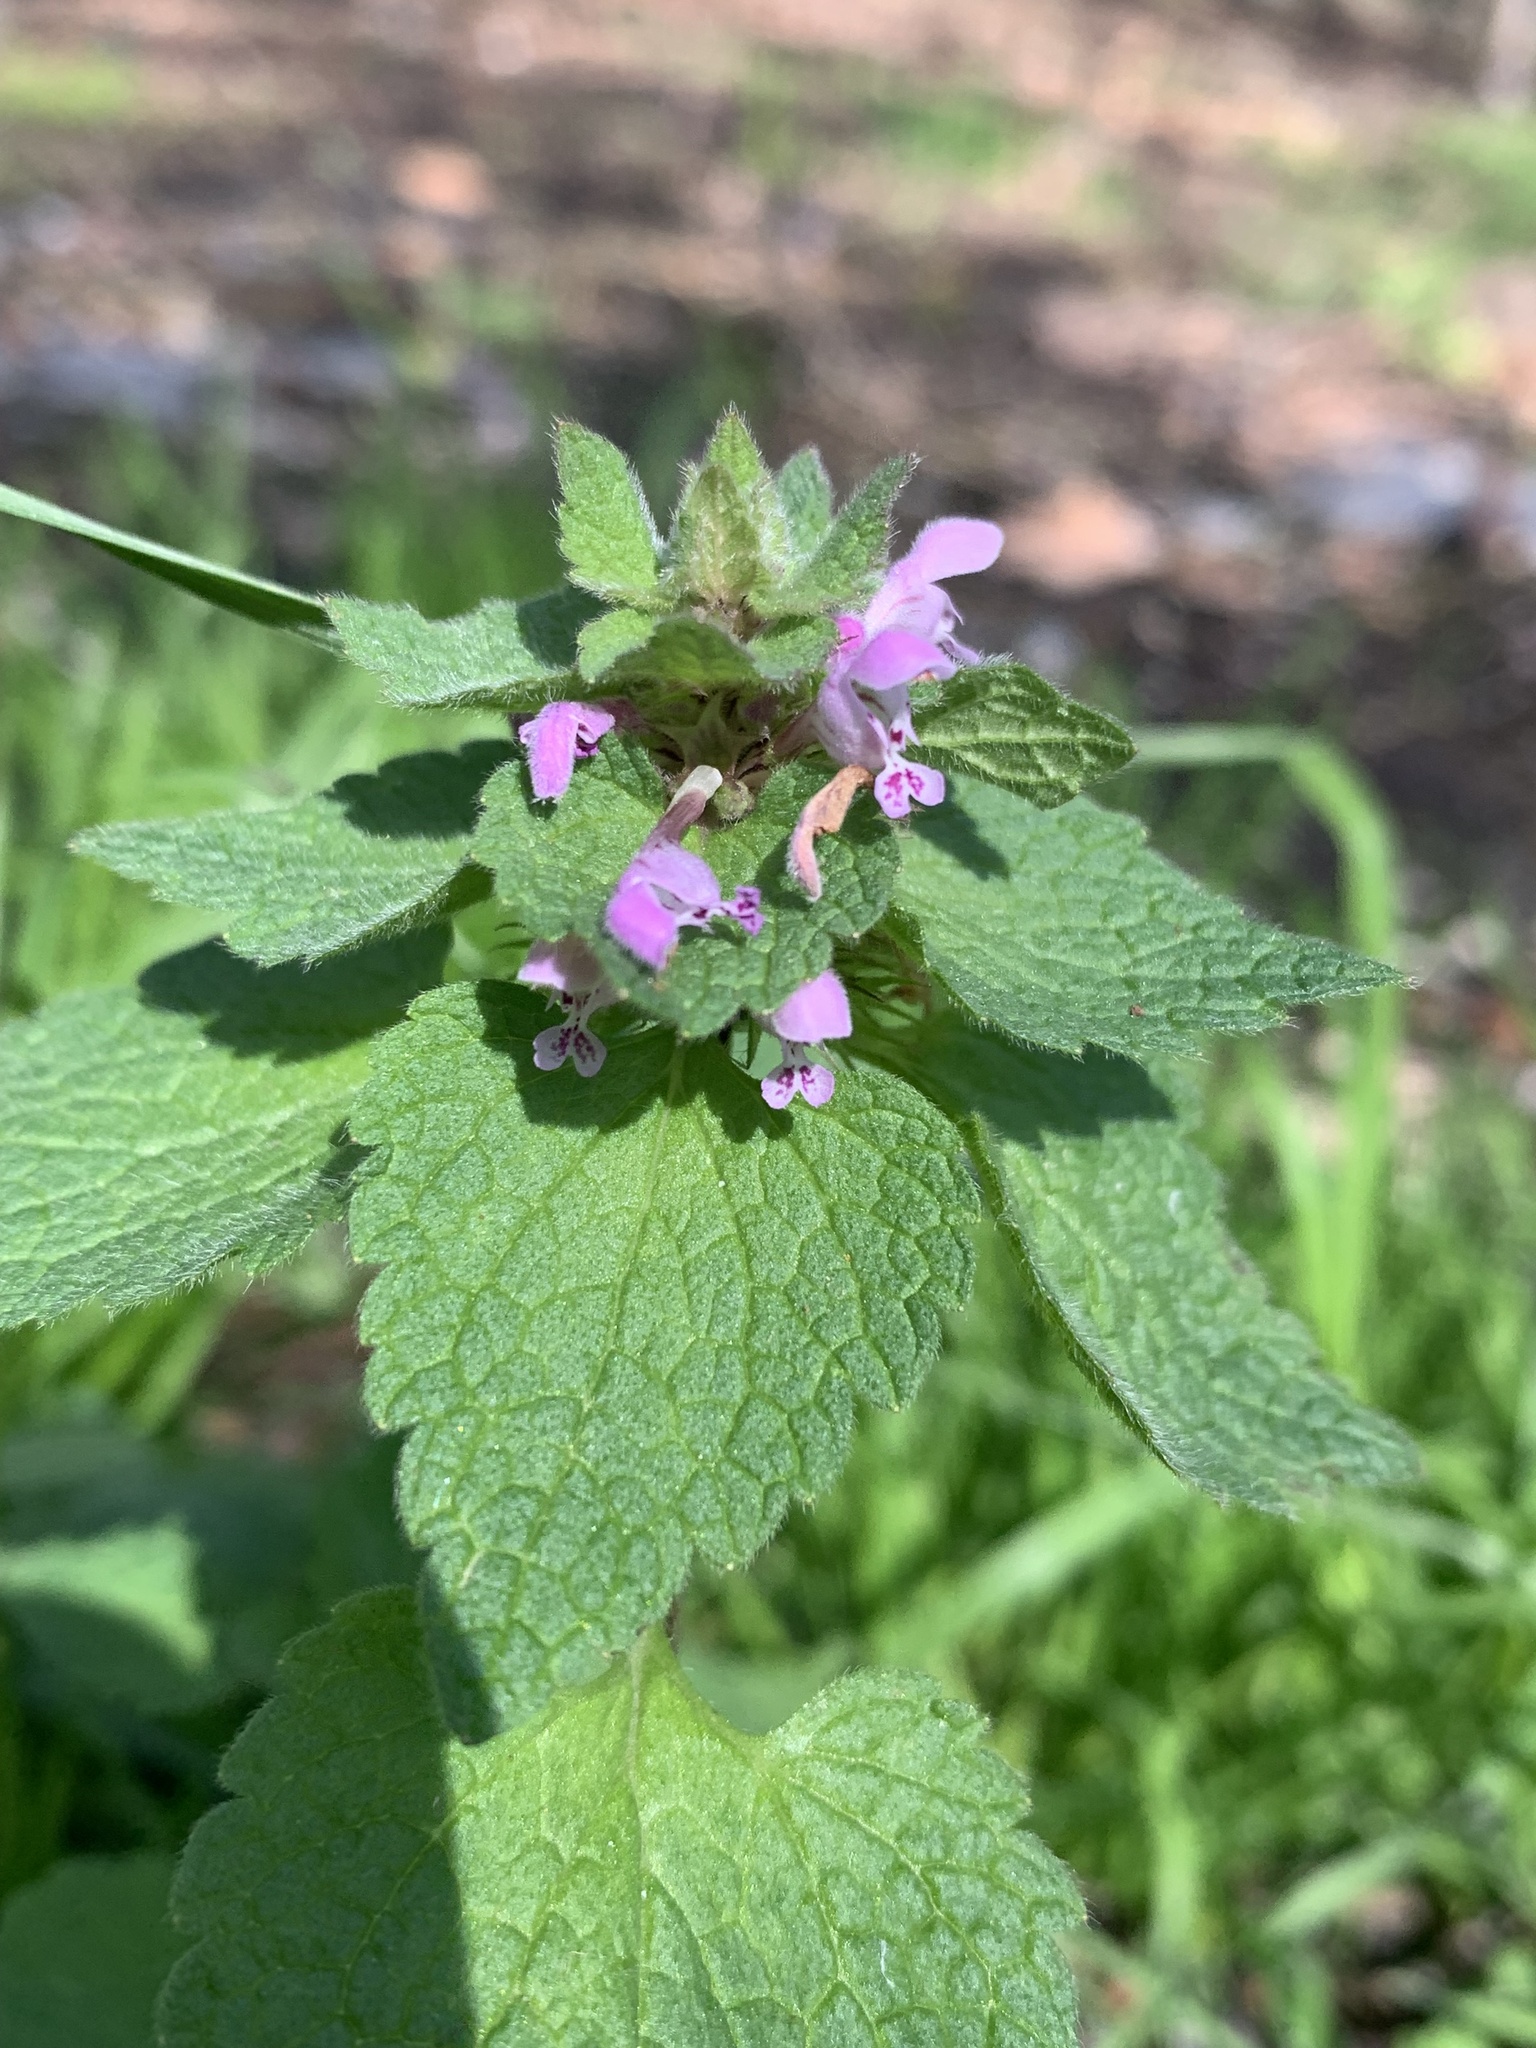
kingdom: Plantae
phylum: Tracheophyta
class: Magnoliopsida
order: Lamiales
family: Lamiaceae
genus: Lamium
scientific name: Lamium purpureum
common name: Red dead-nettle
